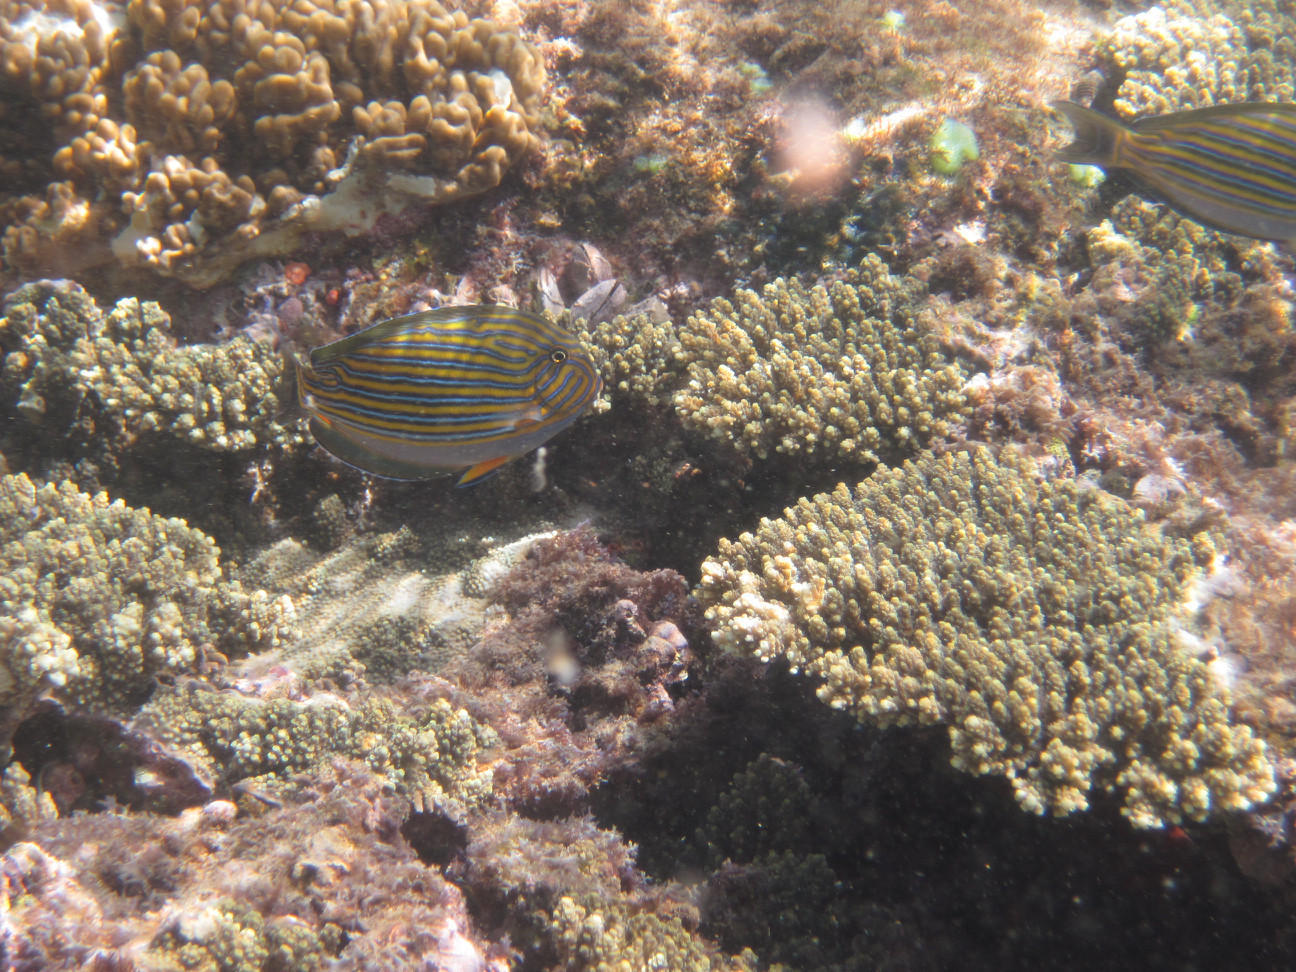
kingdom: Animalia
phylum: Chordata
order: Perciformes
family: Acanthuridae
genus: Acanthurus
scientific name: Acanthurus lineatus
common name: Striped surgeonfish
